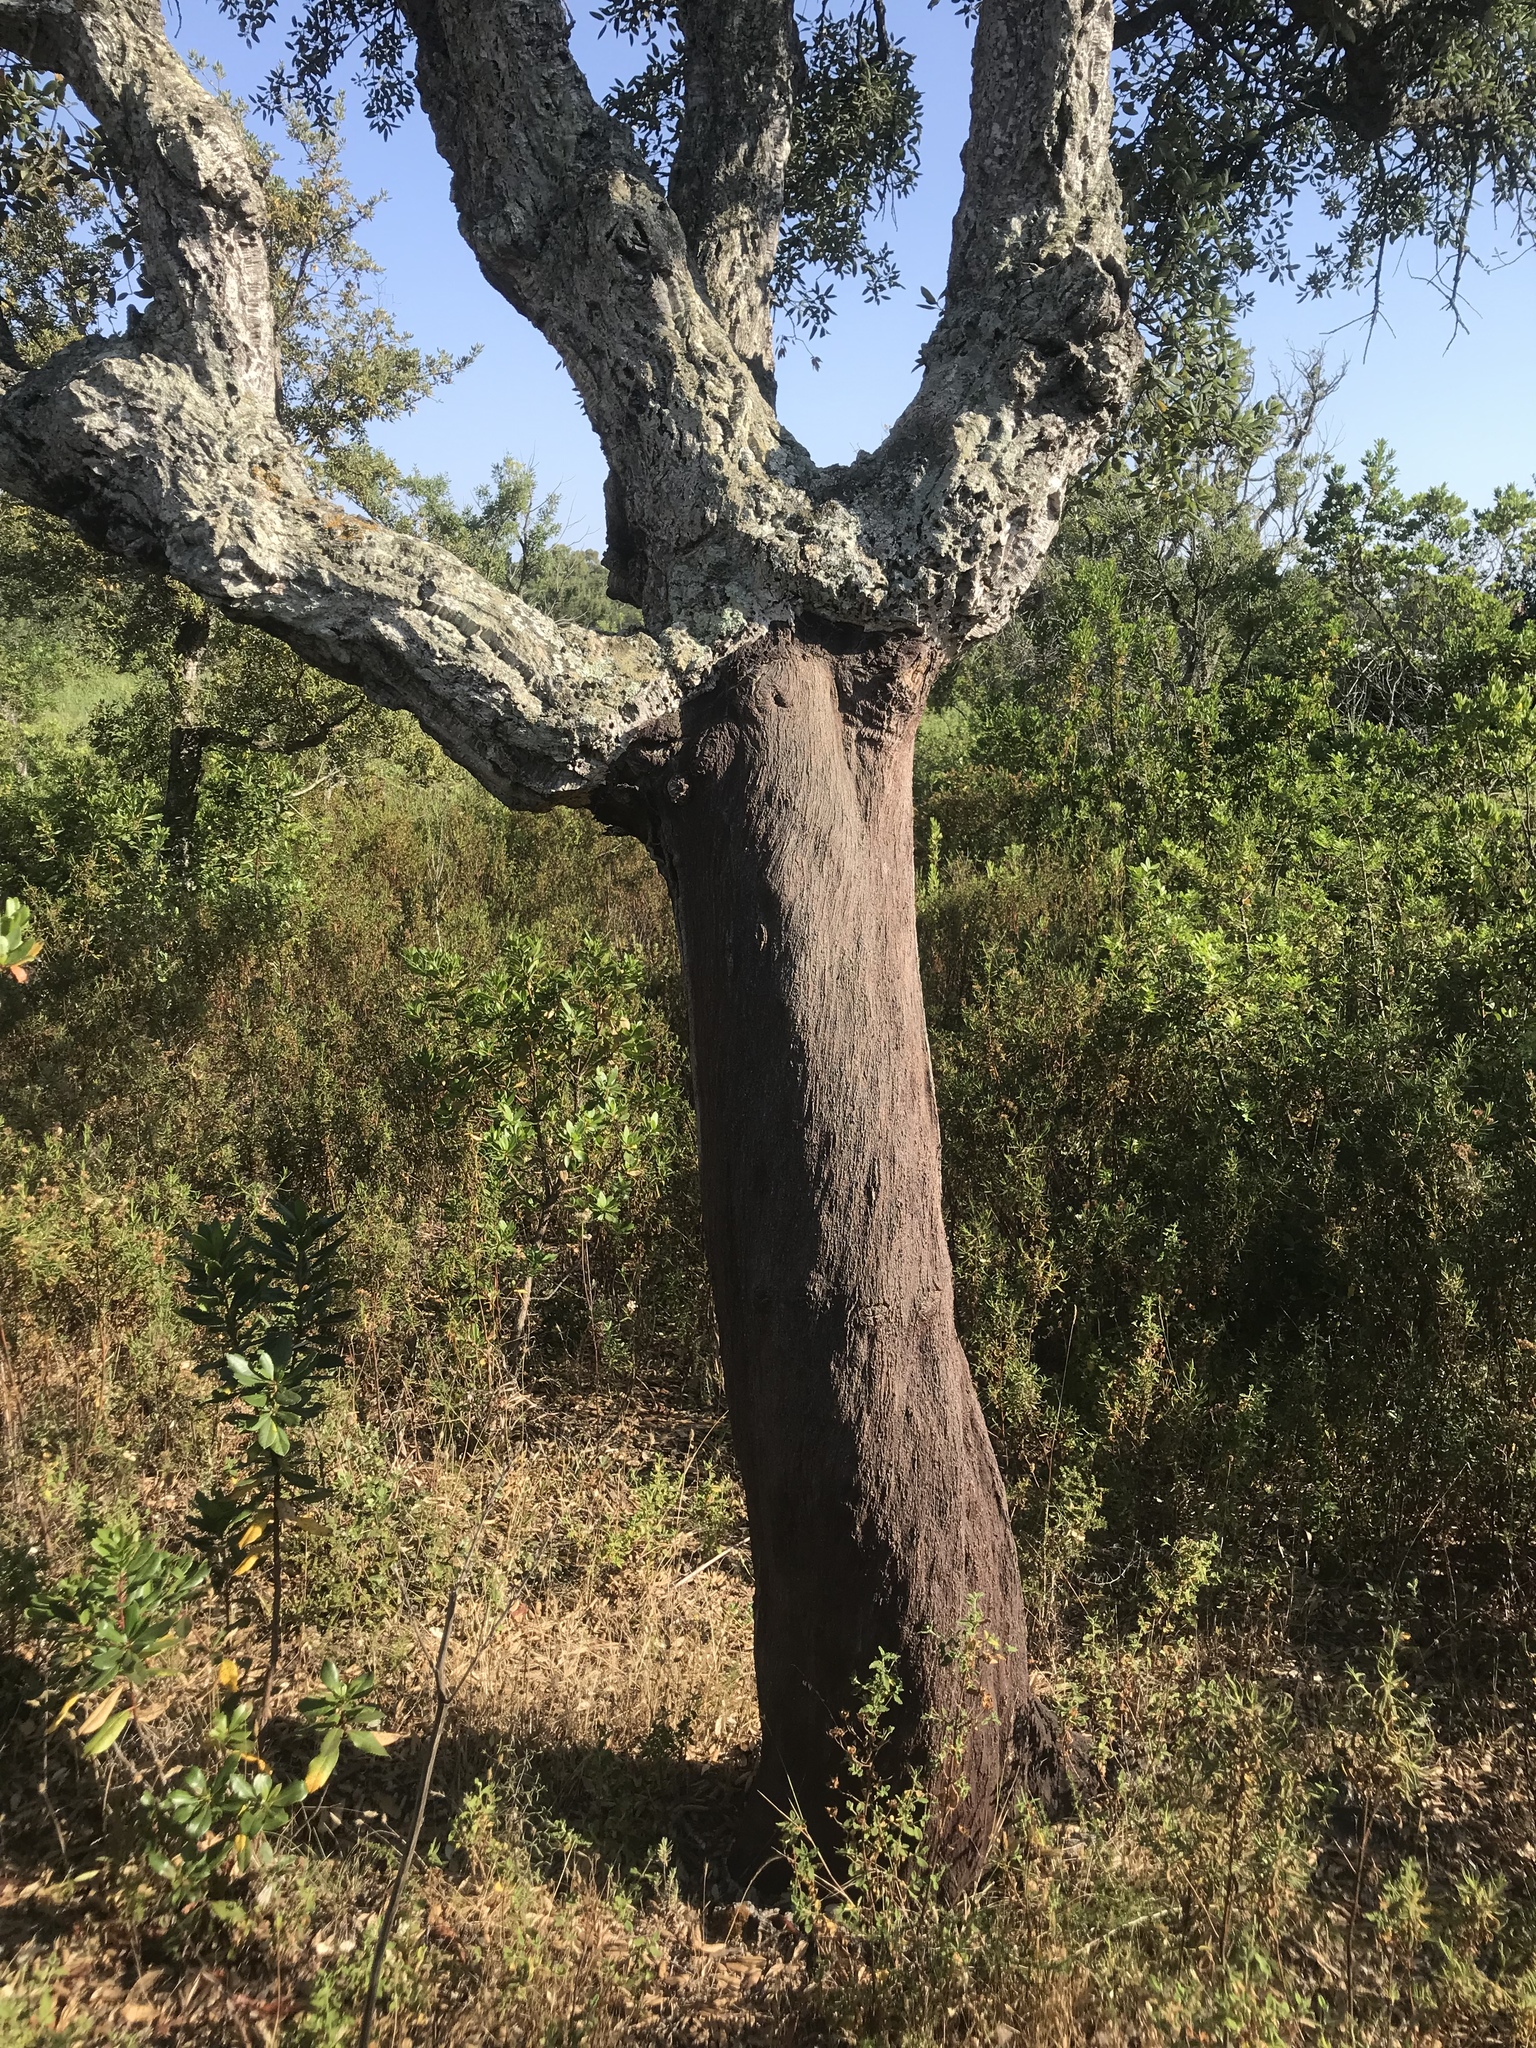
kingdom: Plantae
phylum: Tracheophyta
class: Magnoliopsida
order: Fagales
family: Fagaceae
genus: Quercus
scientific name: Quercus suber
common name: Cork oak
